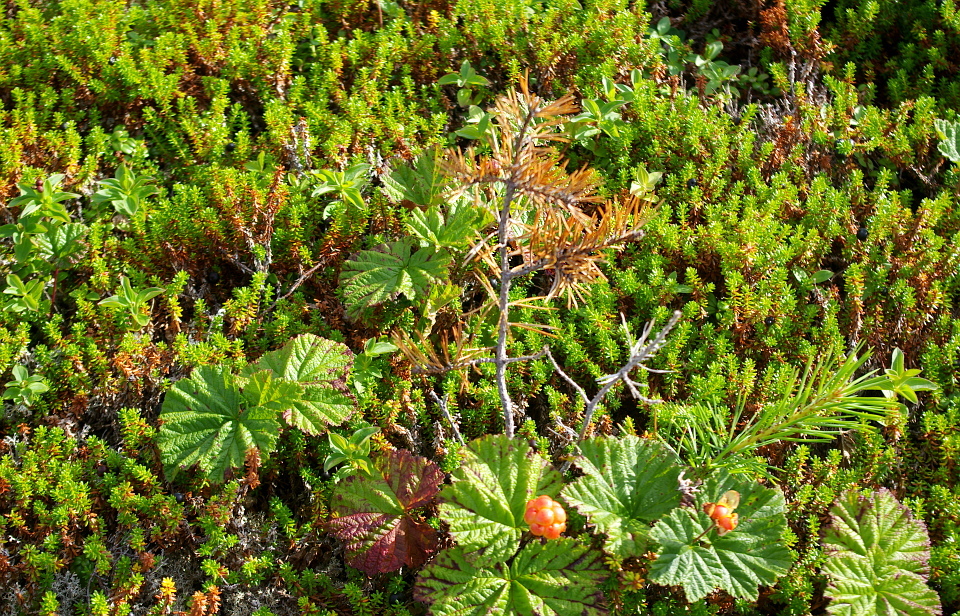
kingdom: Plantae
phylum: Tracheophyta
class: Magnoliopsida
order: Rosales
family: Rosaceae
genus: Rubus
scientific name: Rubus chamaemorus
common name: Cloudberry
